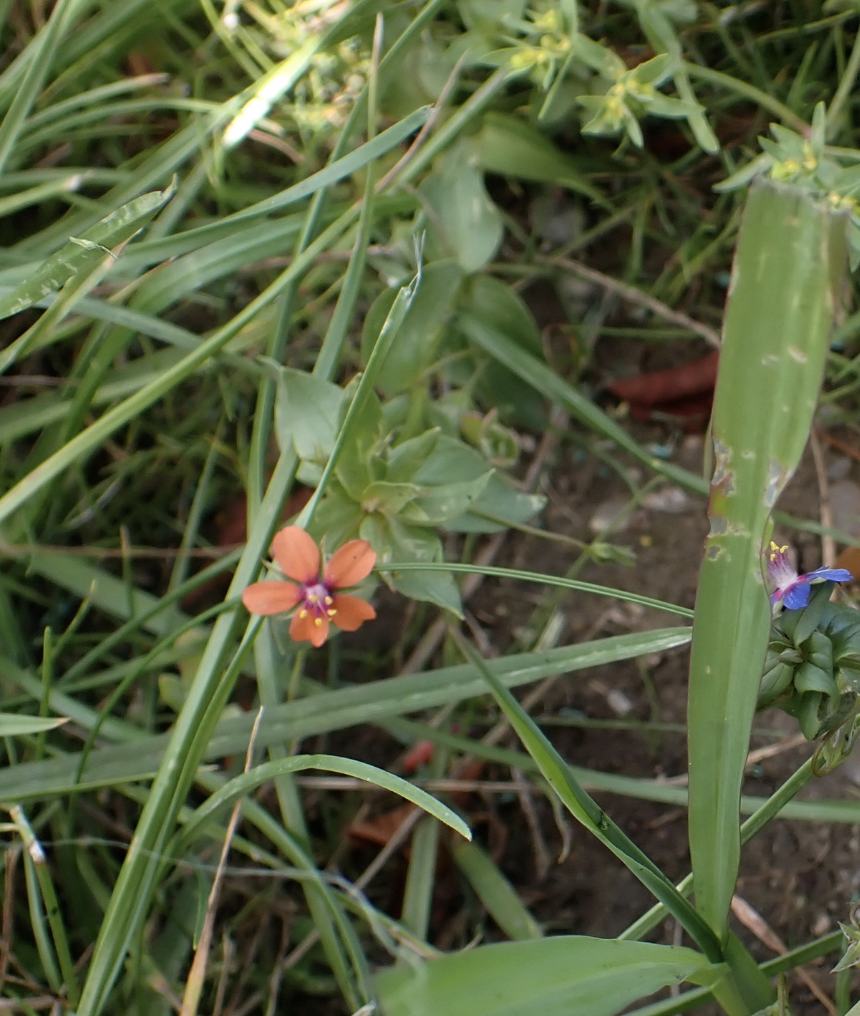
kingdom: Plantae
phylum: Tracheophyta
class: Magnoliopsida
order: Ericales
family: Primulaceae
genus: Lysimachia
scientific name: Lysimachia arvensis
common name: Scarlet pimpernel
